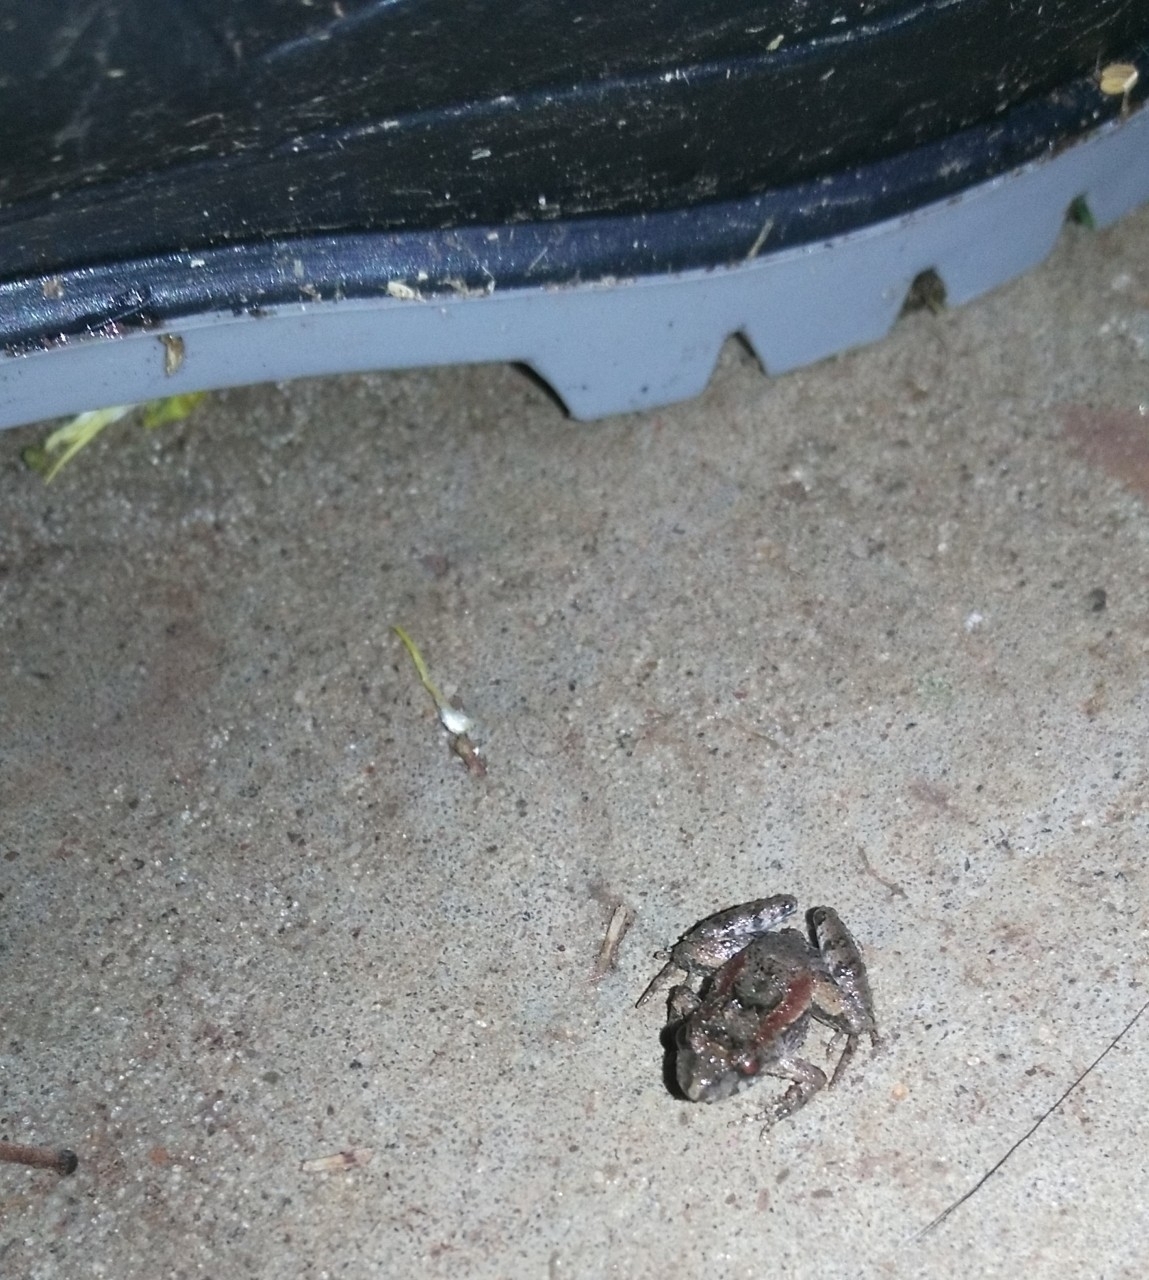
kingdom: Animalia
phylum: Chordata
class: Amphibia
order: Anura
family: Leptodactylidae
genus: Pseudopaludicola
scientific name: Pseudopaludicola falcipes
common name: Hensel’s swamp frog
